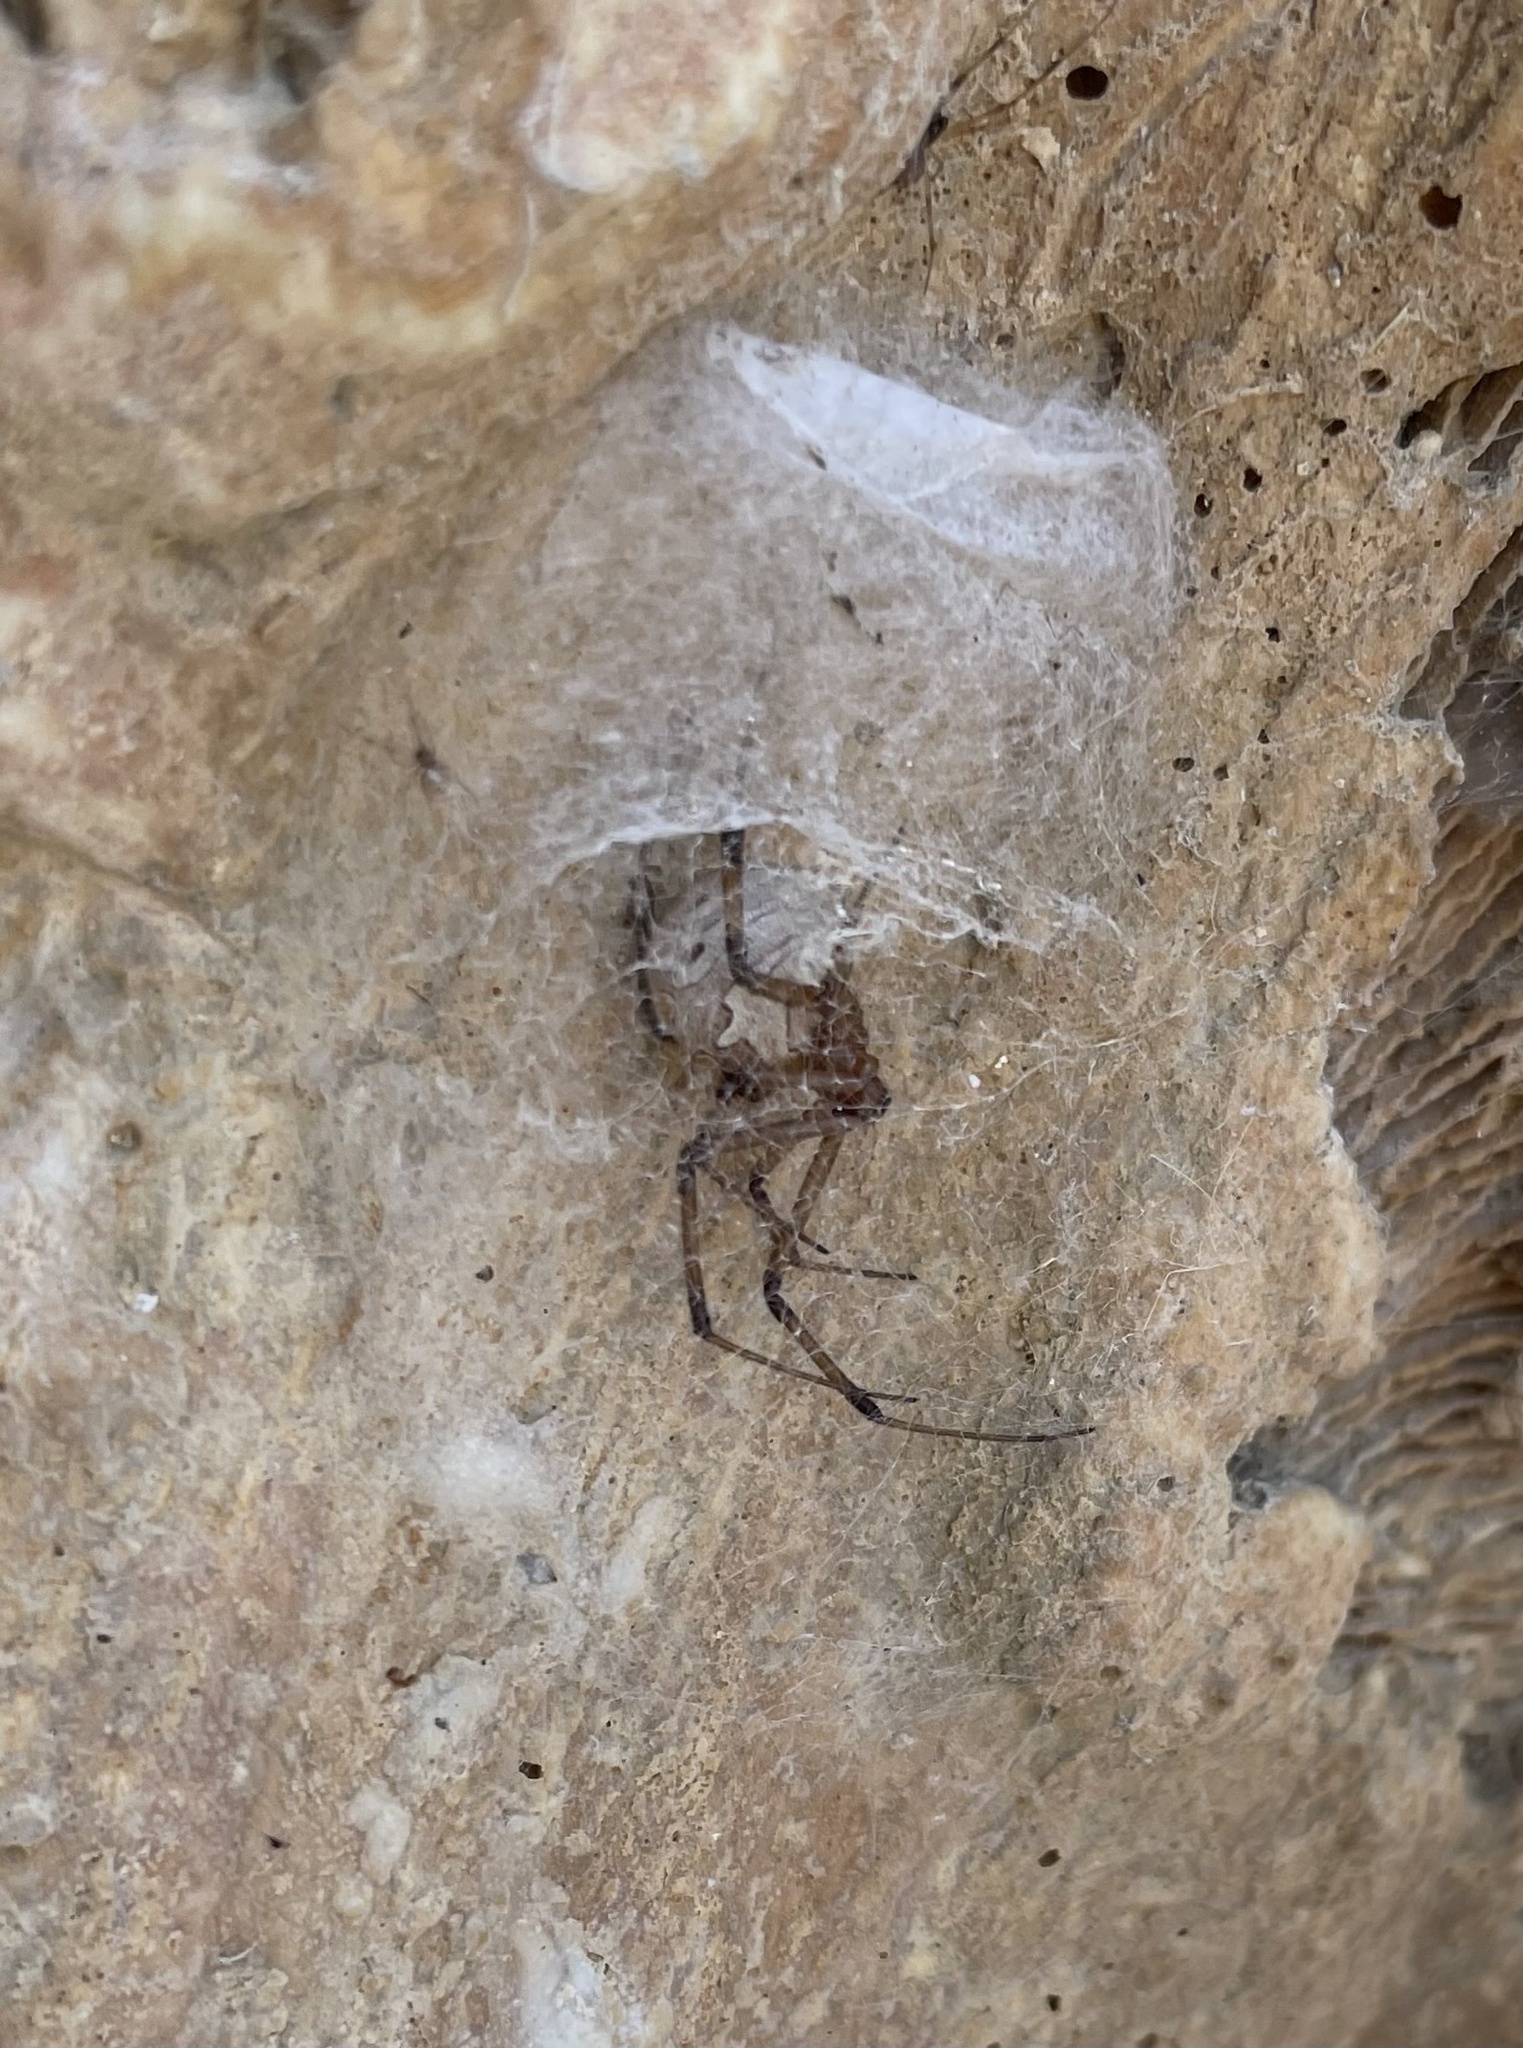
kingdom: Animalia
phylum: Arthropoda
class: Arachnida
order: Araneae
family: Theridiidae
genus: Latrodectus
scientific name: Latrodectus geometricus
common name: Brown widow spider
